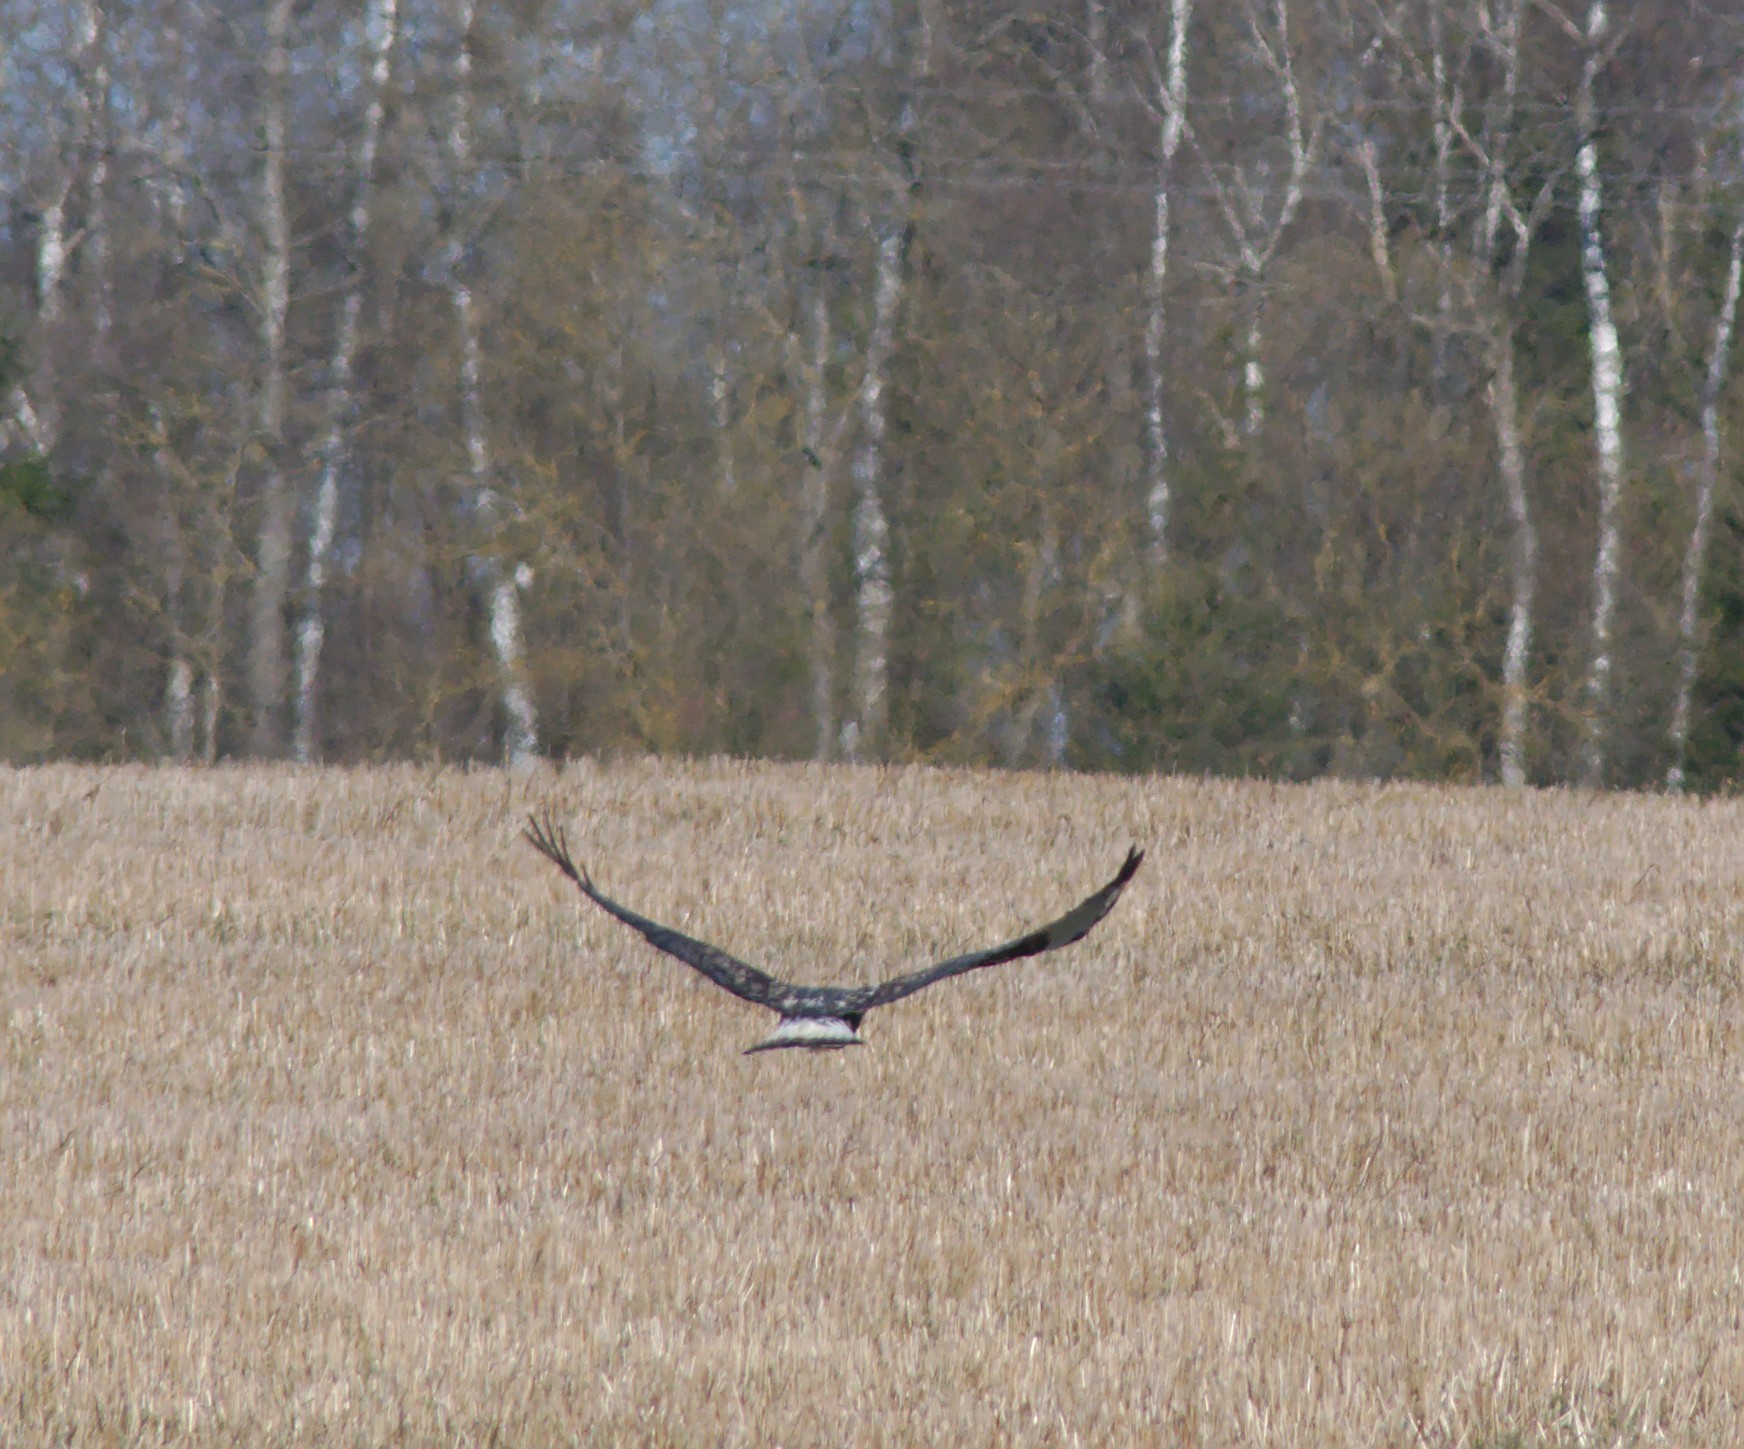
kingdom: Animalia
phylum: Chordata
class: Aves
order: Accipitriformes
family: Accipitridae
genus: Buteo
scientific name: Buteo lagopus
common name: Rough-legged buzzard
